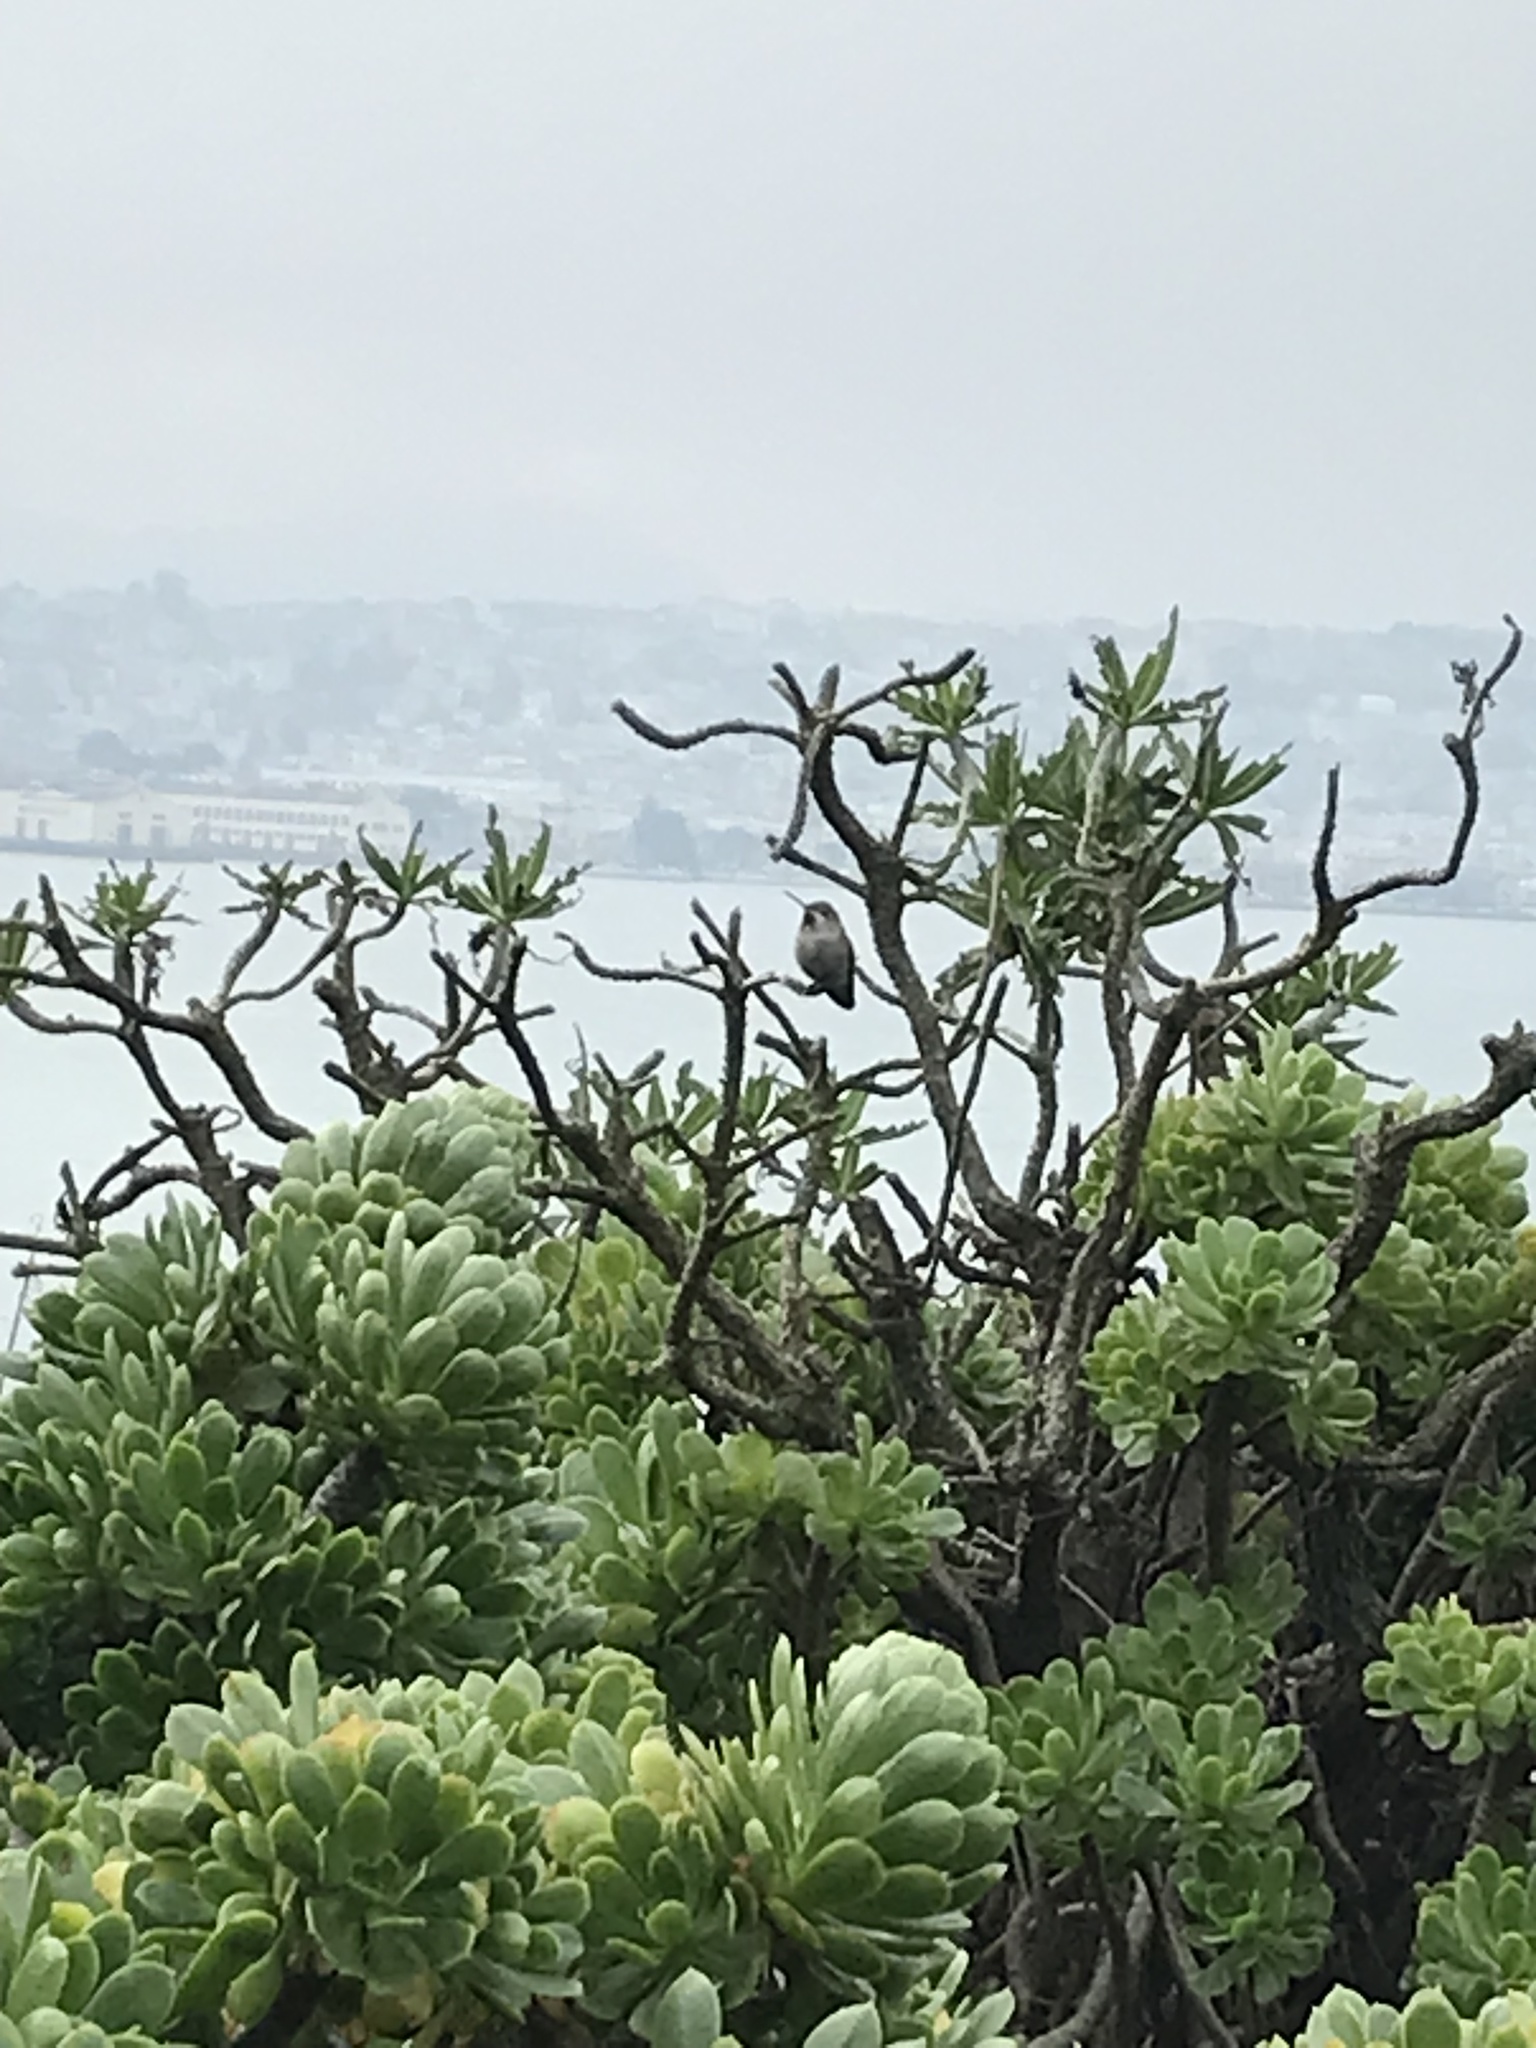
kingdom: Animalia
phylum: Chordata
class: Aves
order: Apodiformes
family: Trochilidae
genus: Calypte
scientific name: Calypte anna
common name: Anna's hummingbird
